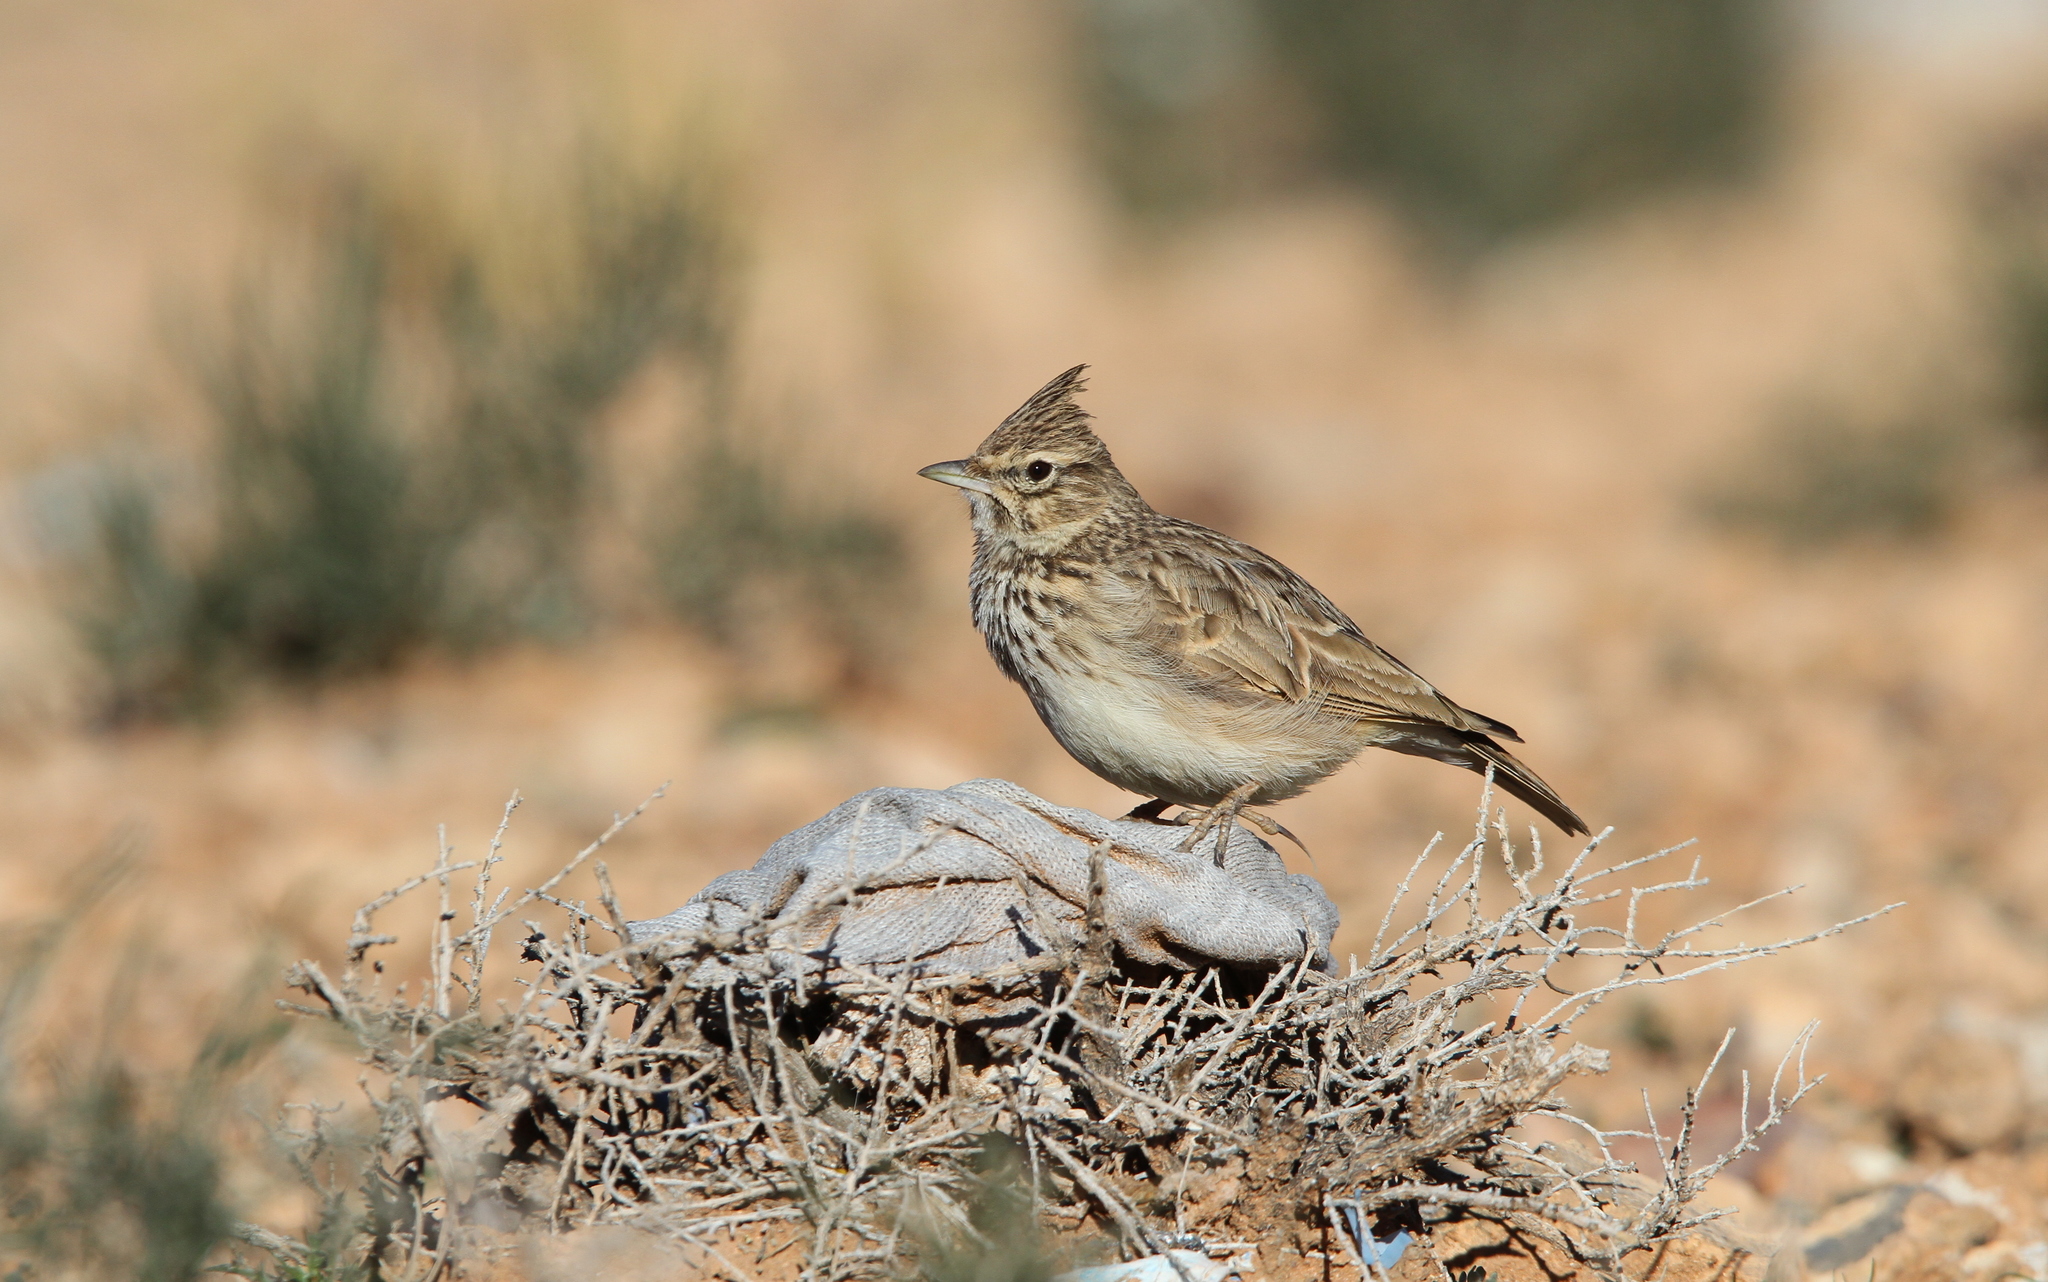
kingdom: Animalia
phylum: Chordata
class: Aves
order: Passeriformes
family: Alaudidae
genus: Galerida
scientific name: Galerida theklae
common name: Thekla lark
